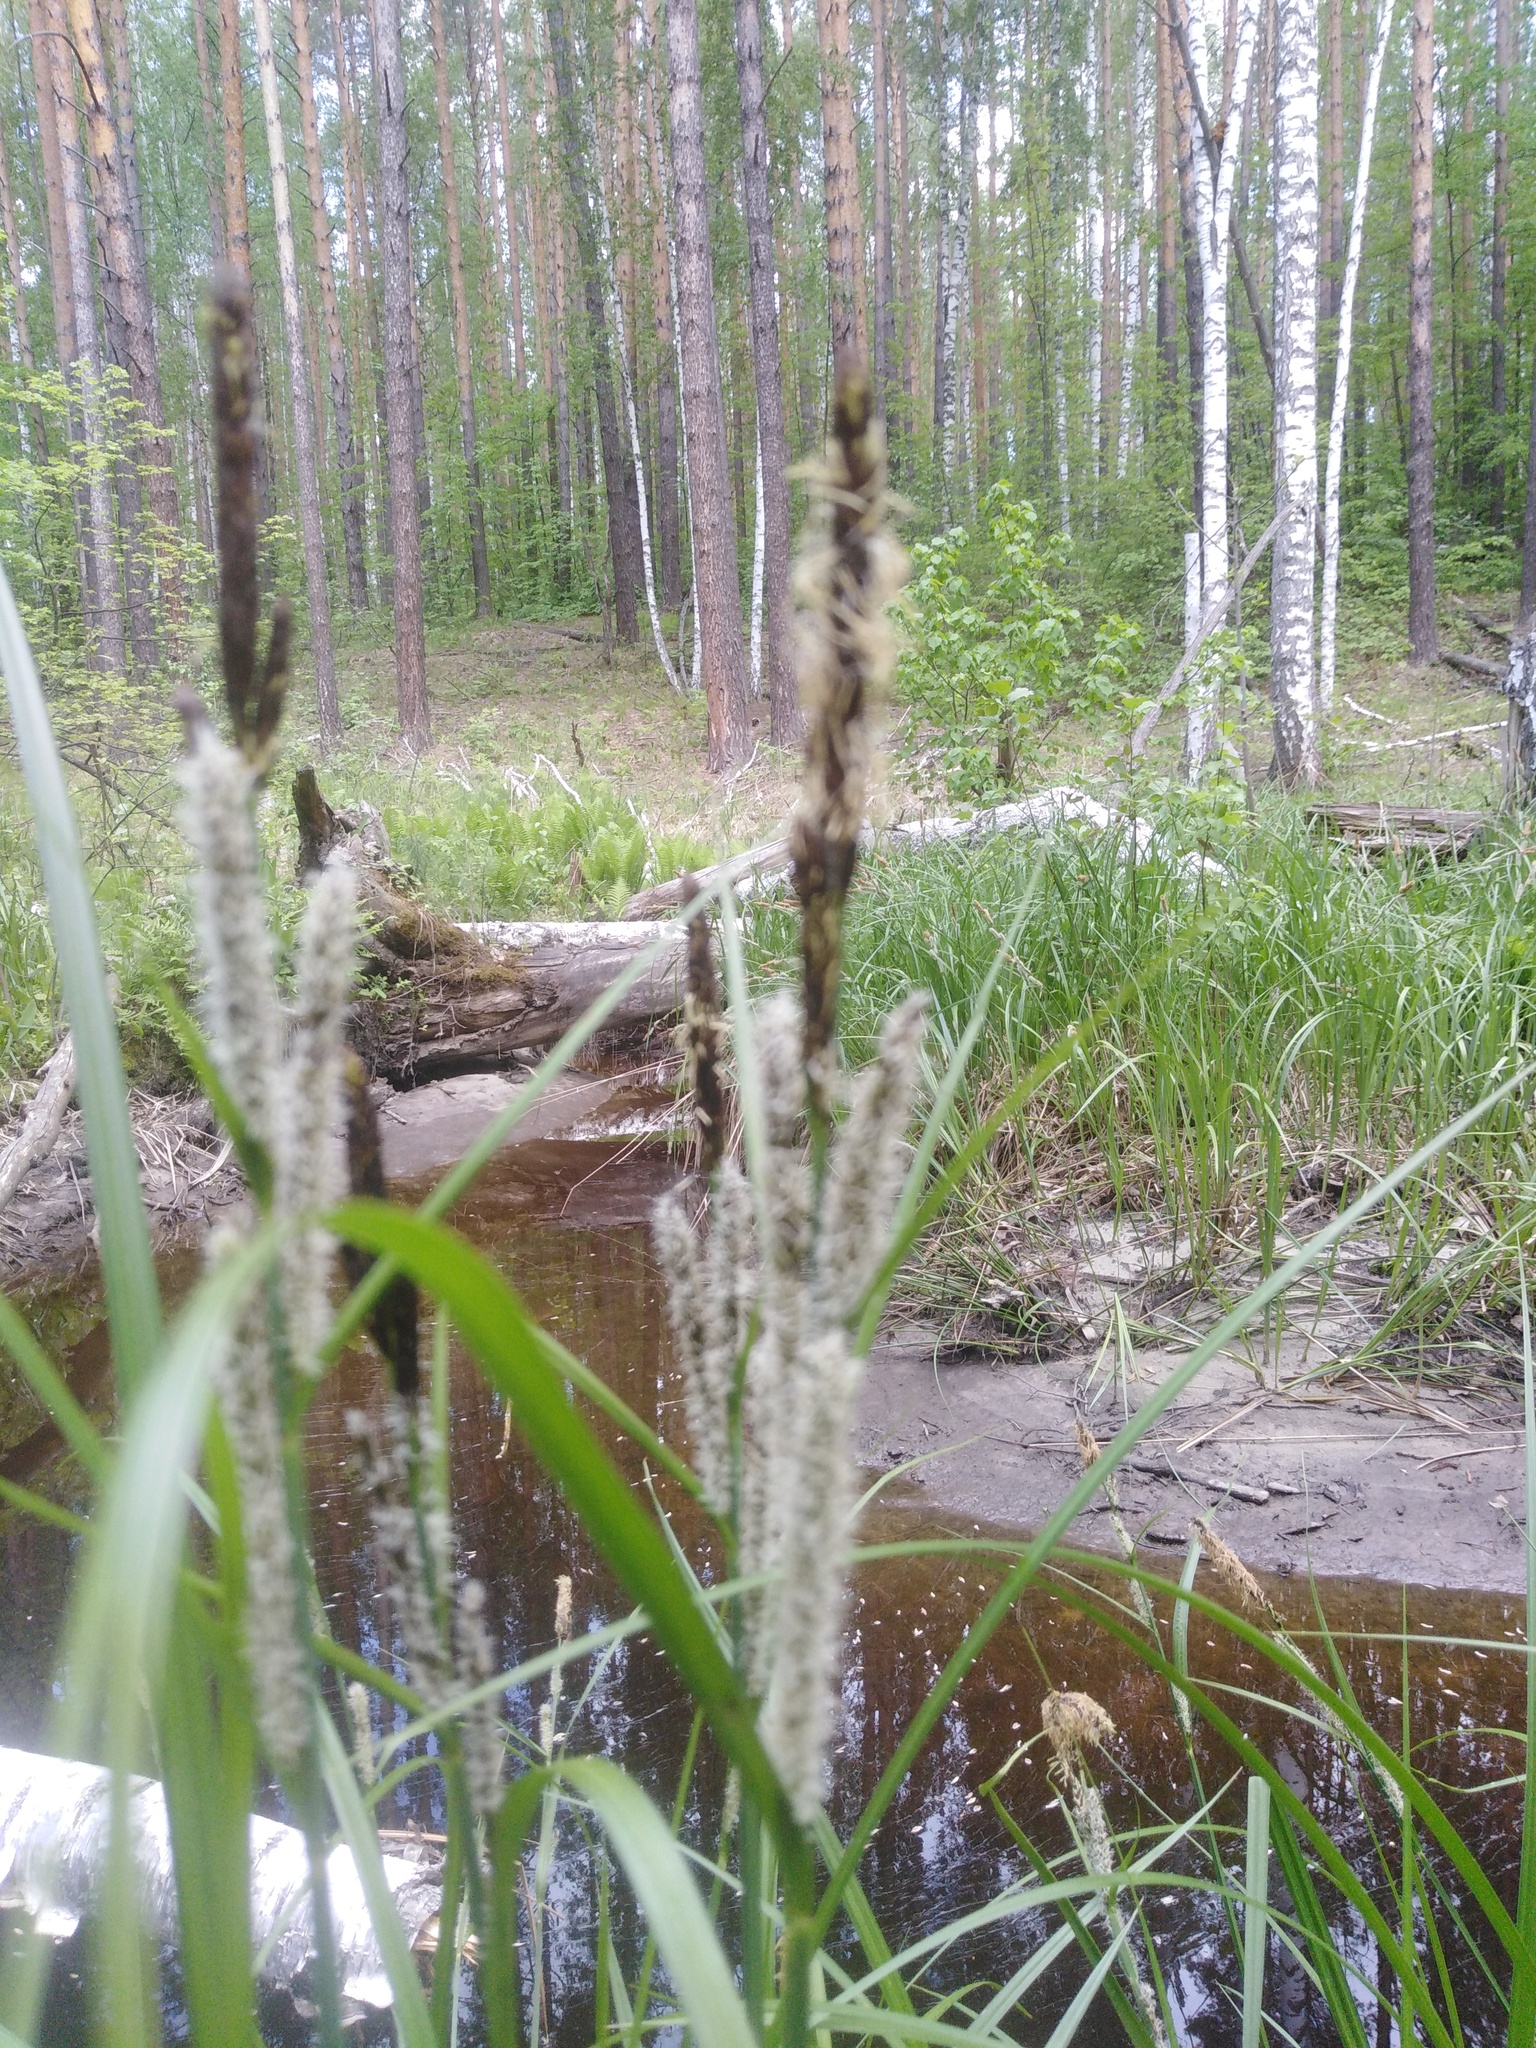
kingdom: Plantae
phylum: Tracheophyta
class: Liliopsida
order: Poales
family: Cyperaceae
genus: Carex
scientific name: Carex acutiformis
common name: Lesser pond-sedge
